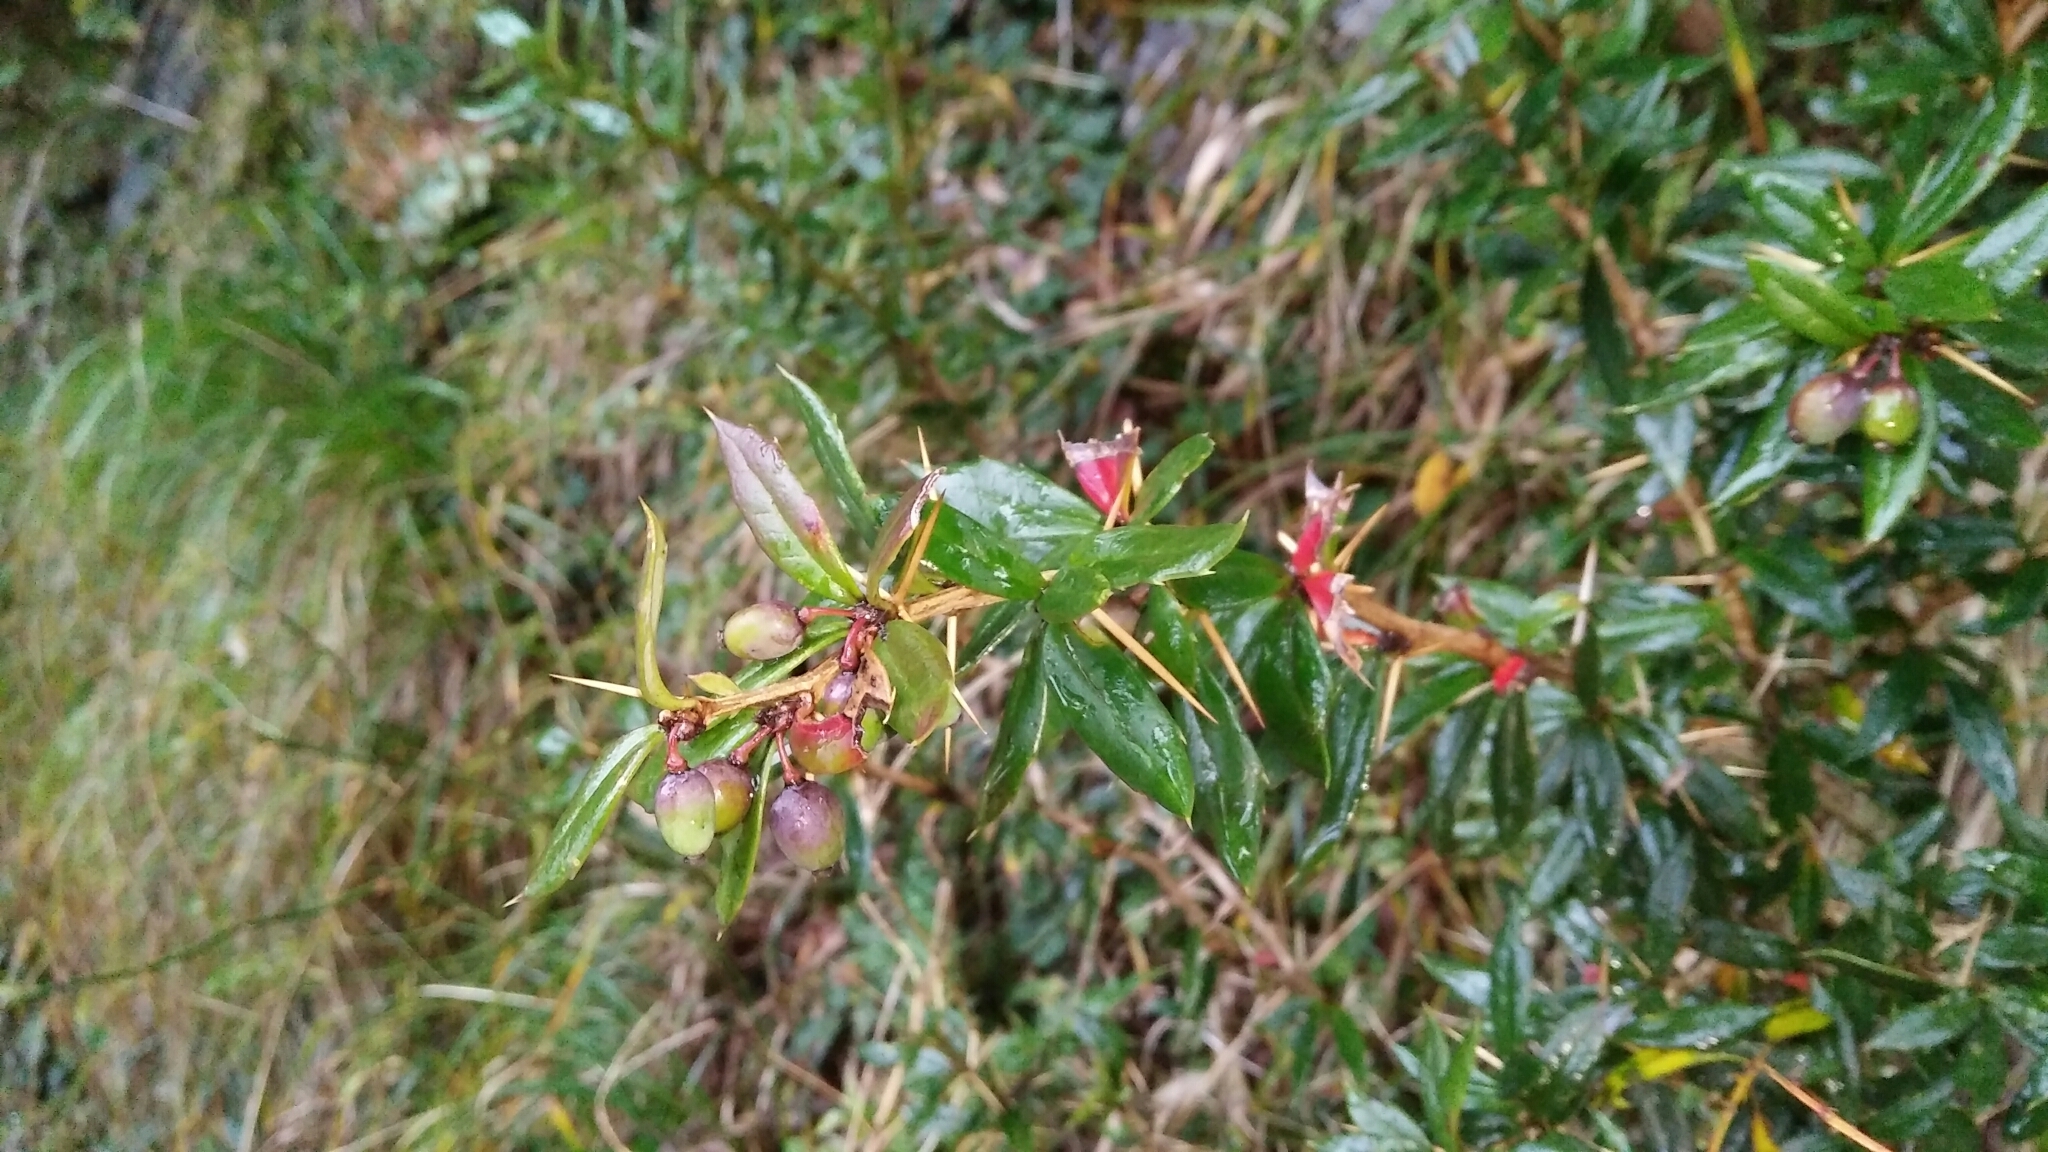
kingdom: Plantae
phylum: Tracheophyta
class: Magnoliopsida
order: Ranunculales
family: Berberidaceae
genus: Berberis
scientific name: Berberis nantoensis
